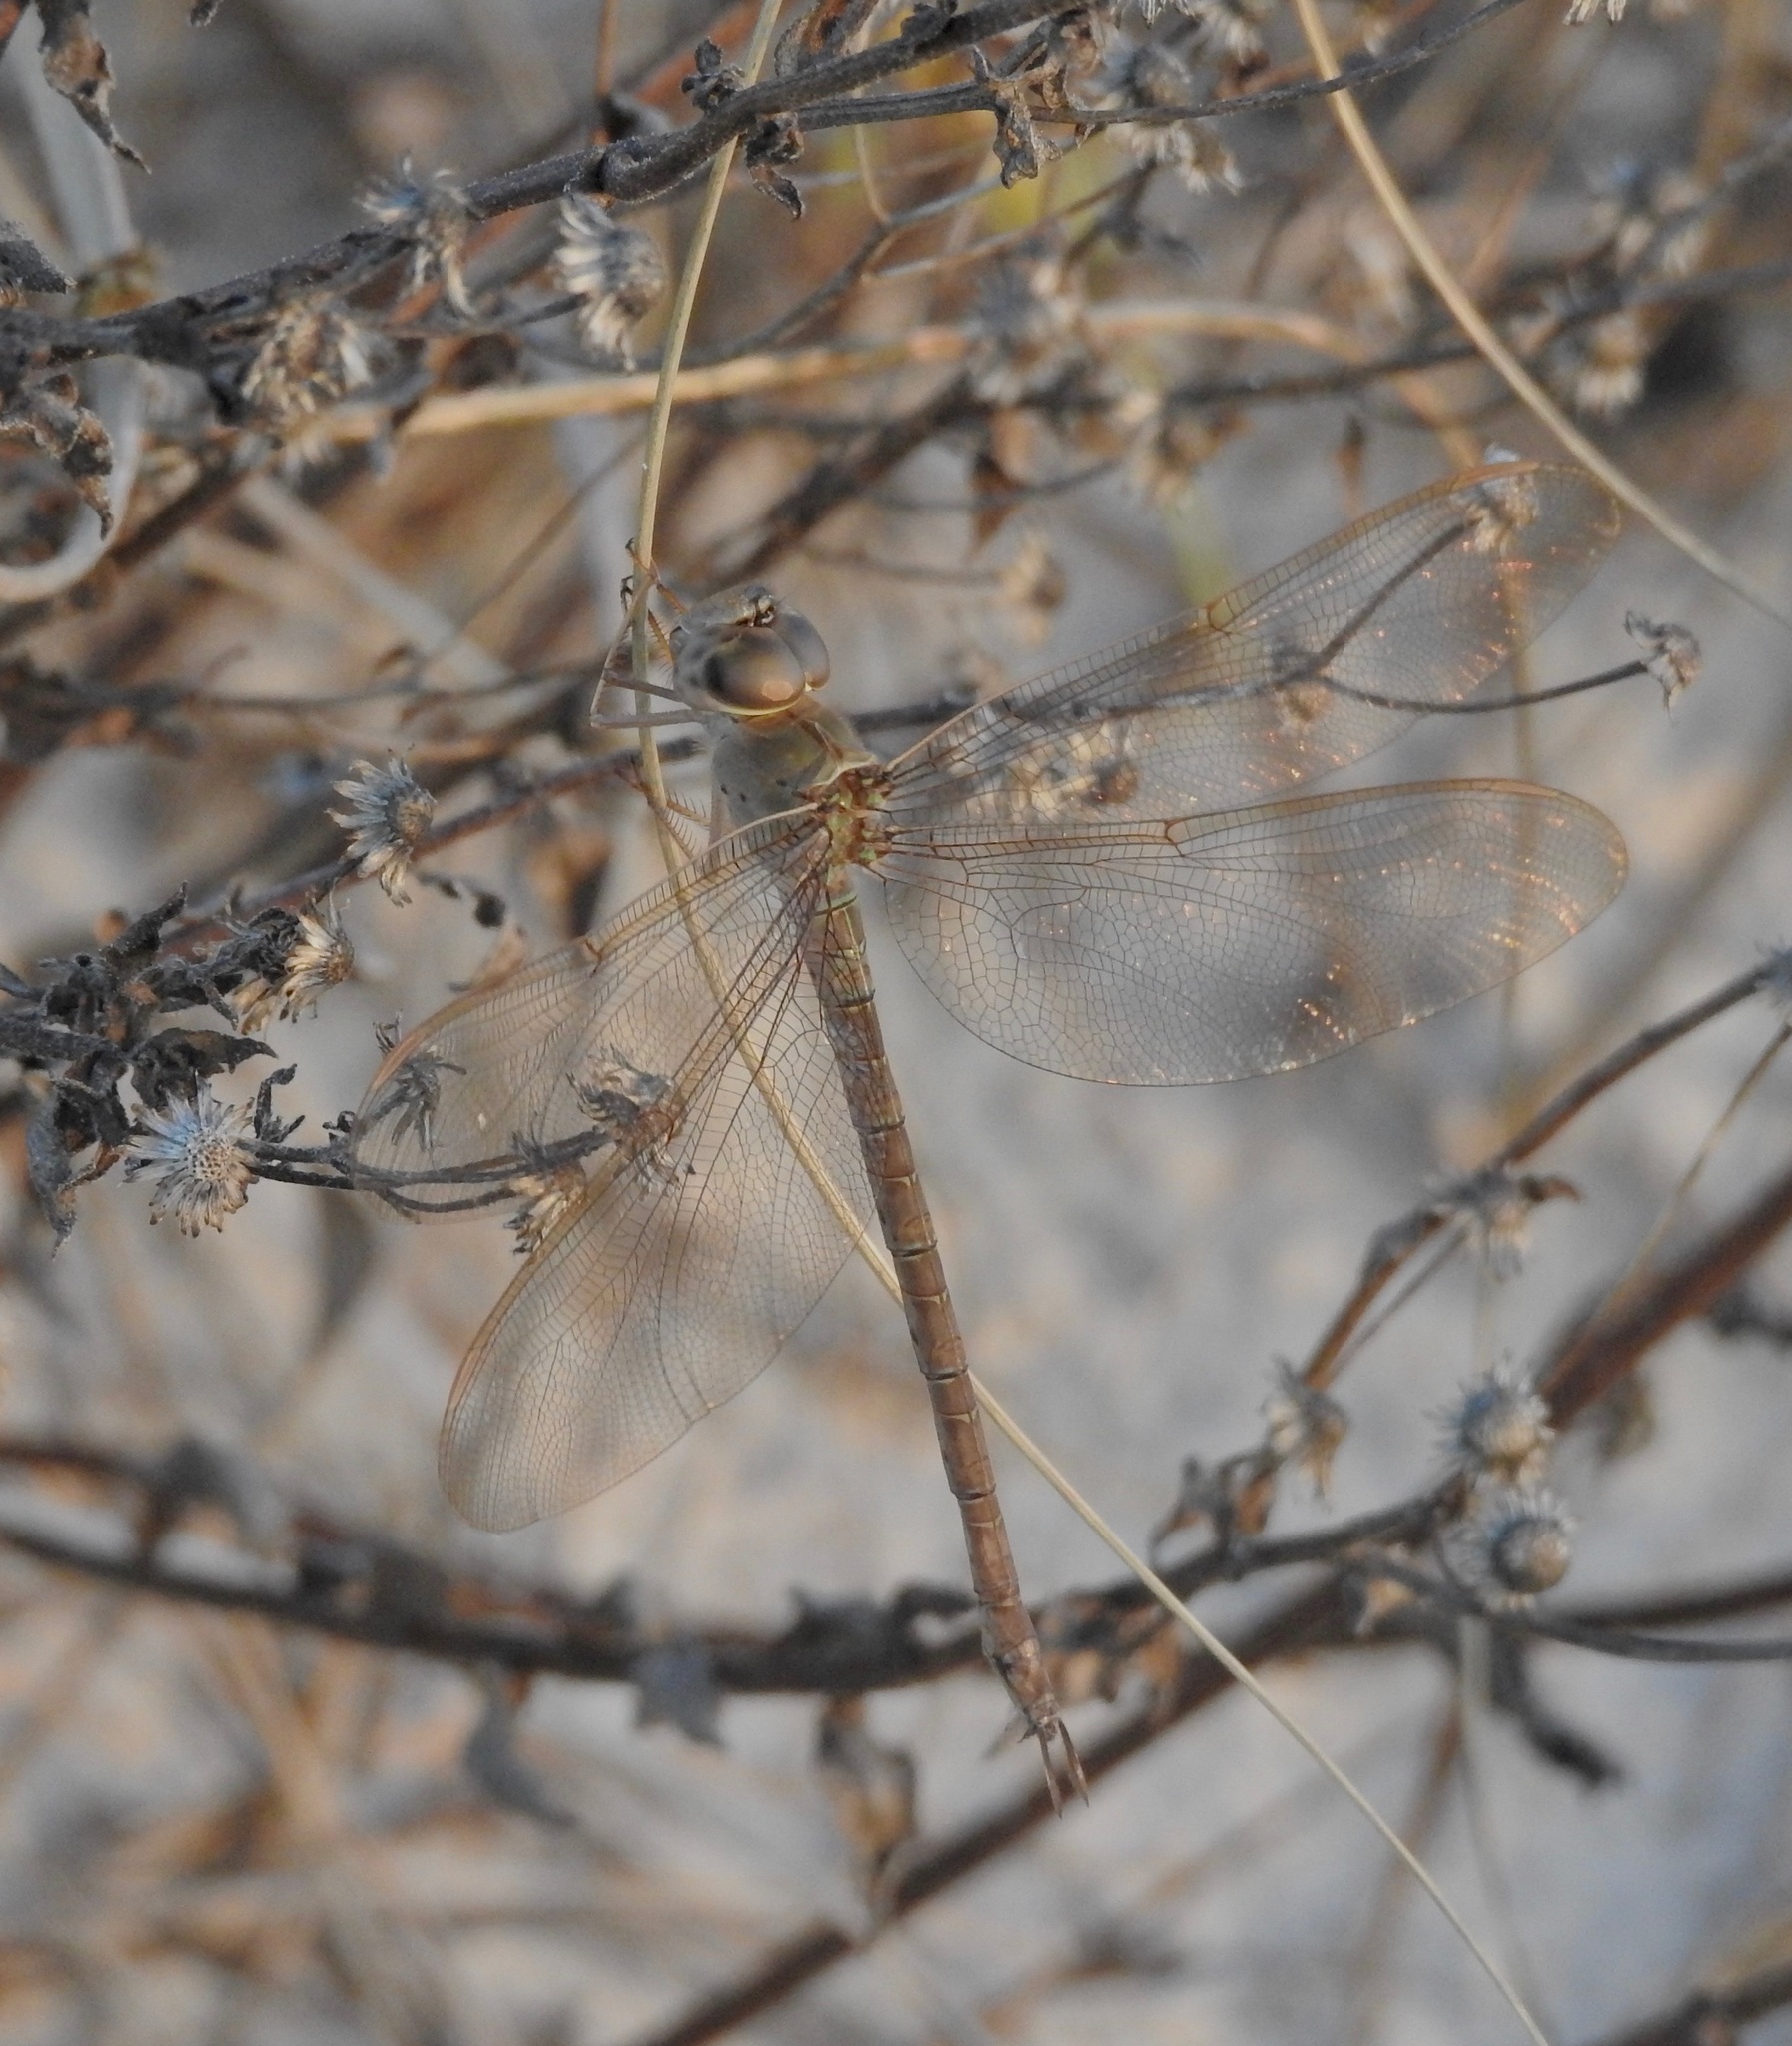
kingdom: Animalia
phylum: Arthropoda
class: Insecta
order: Odonata
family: Aeshnidae
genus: Gynacantha
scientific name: Gynacantha nervosa
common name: Twilight darner
